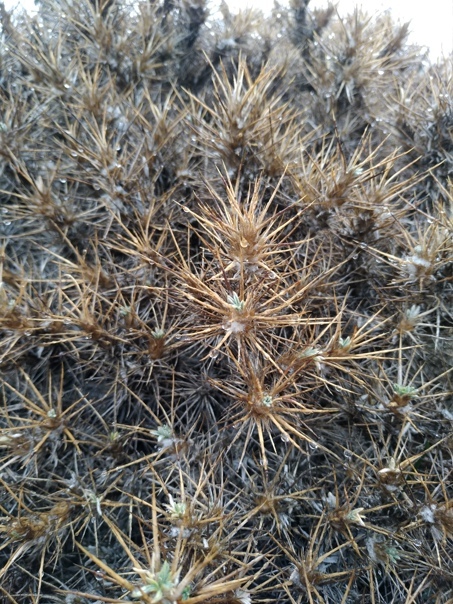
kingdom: Plantae
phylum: Tracheophyta
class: Magnoliopsida
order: Apiales
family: Apiaceae
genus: Eryngium
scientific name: Eryngium campestre
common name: Field eryngo
